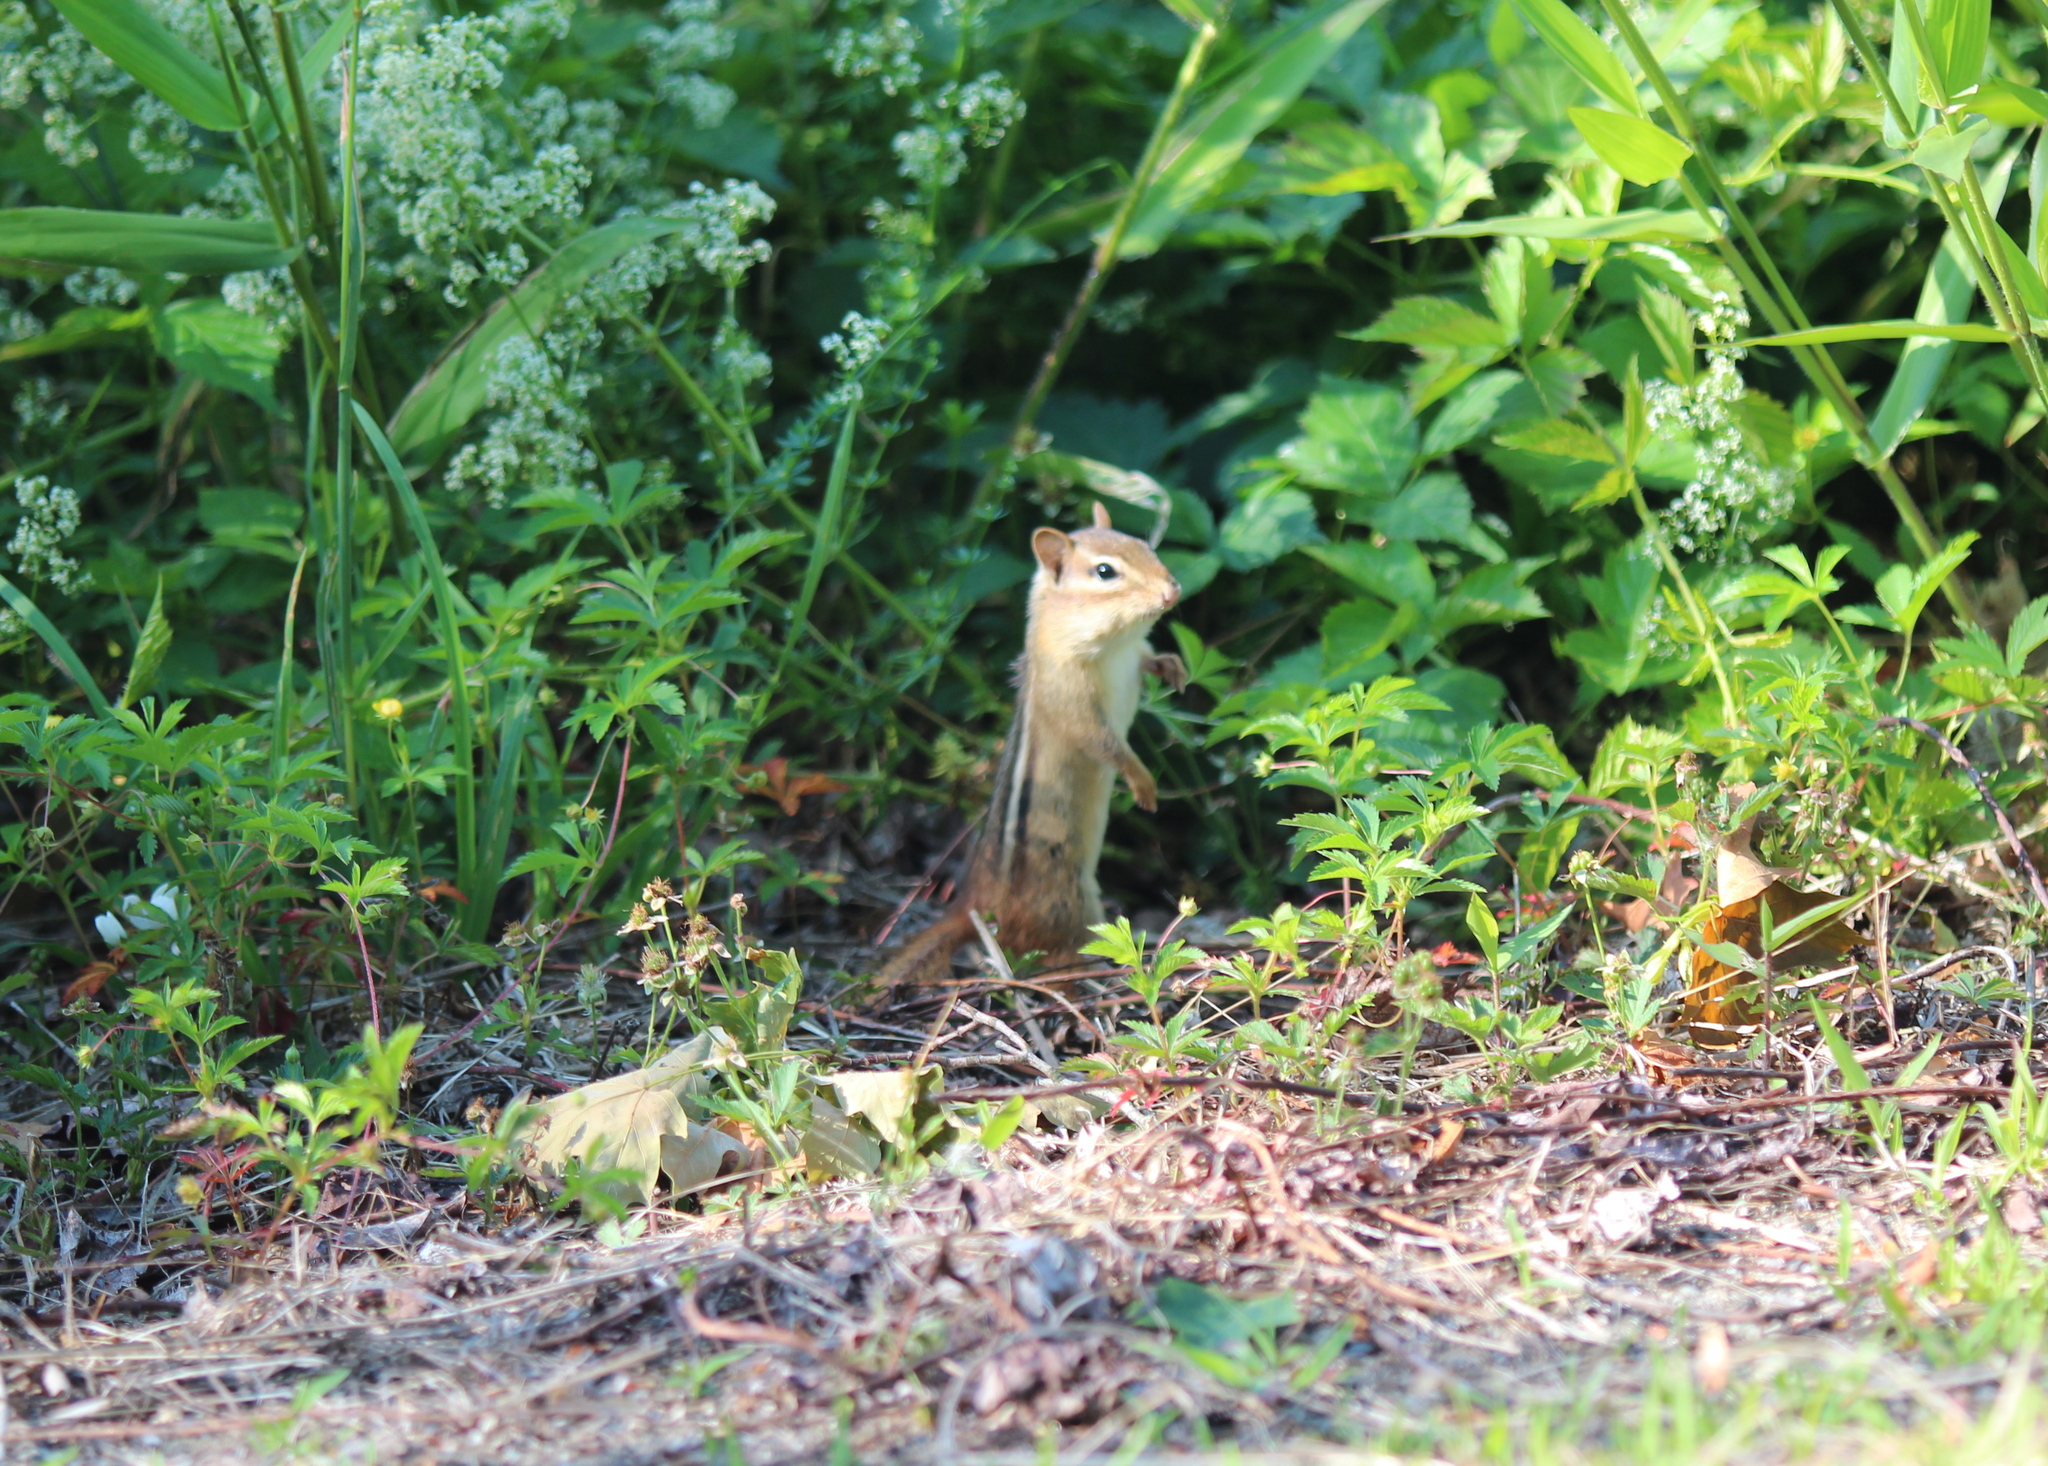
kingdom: Animalia
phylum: Chordata
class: Mammalia
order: Rodentia
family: Sciuridae
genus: Tamias
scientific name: Tamias striatus
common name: Eastern chipmunk
